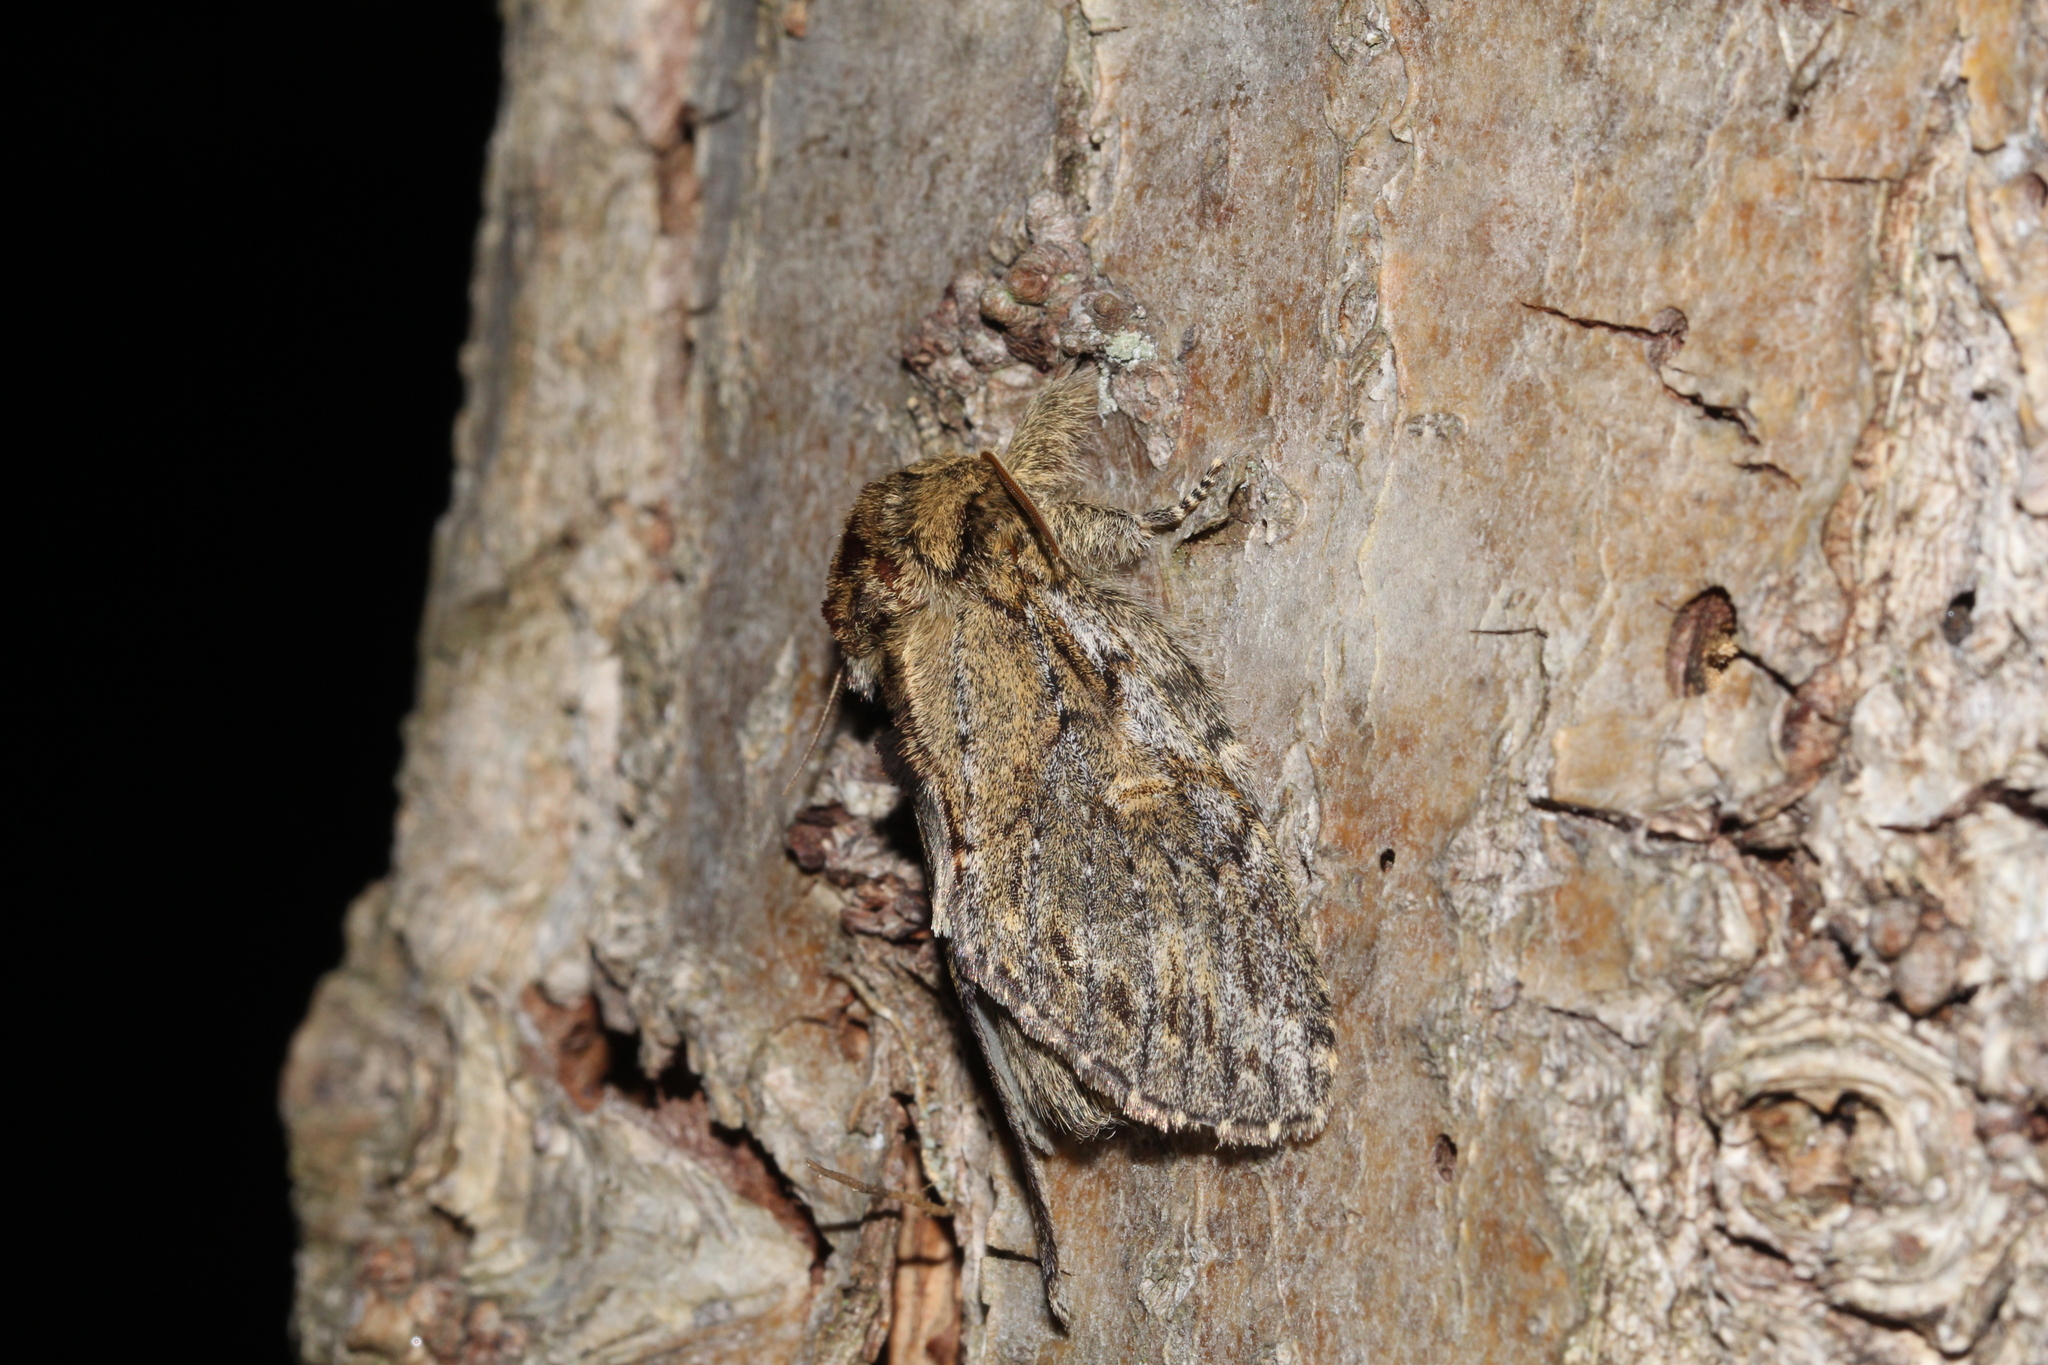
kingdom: Animalia
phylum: Arthropoda
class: Insecta
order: Lepidoptera
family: Notodontidae
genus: Peridea
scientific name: Peridea anceps
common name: Great prominent
